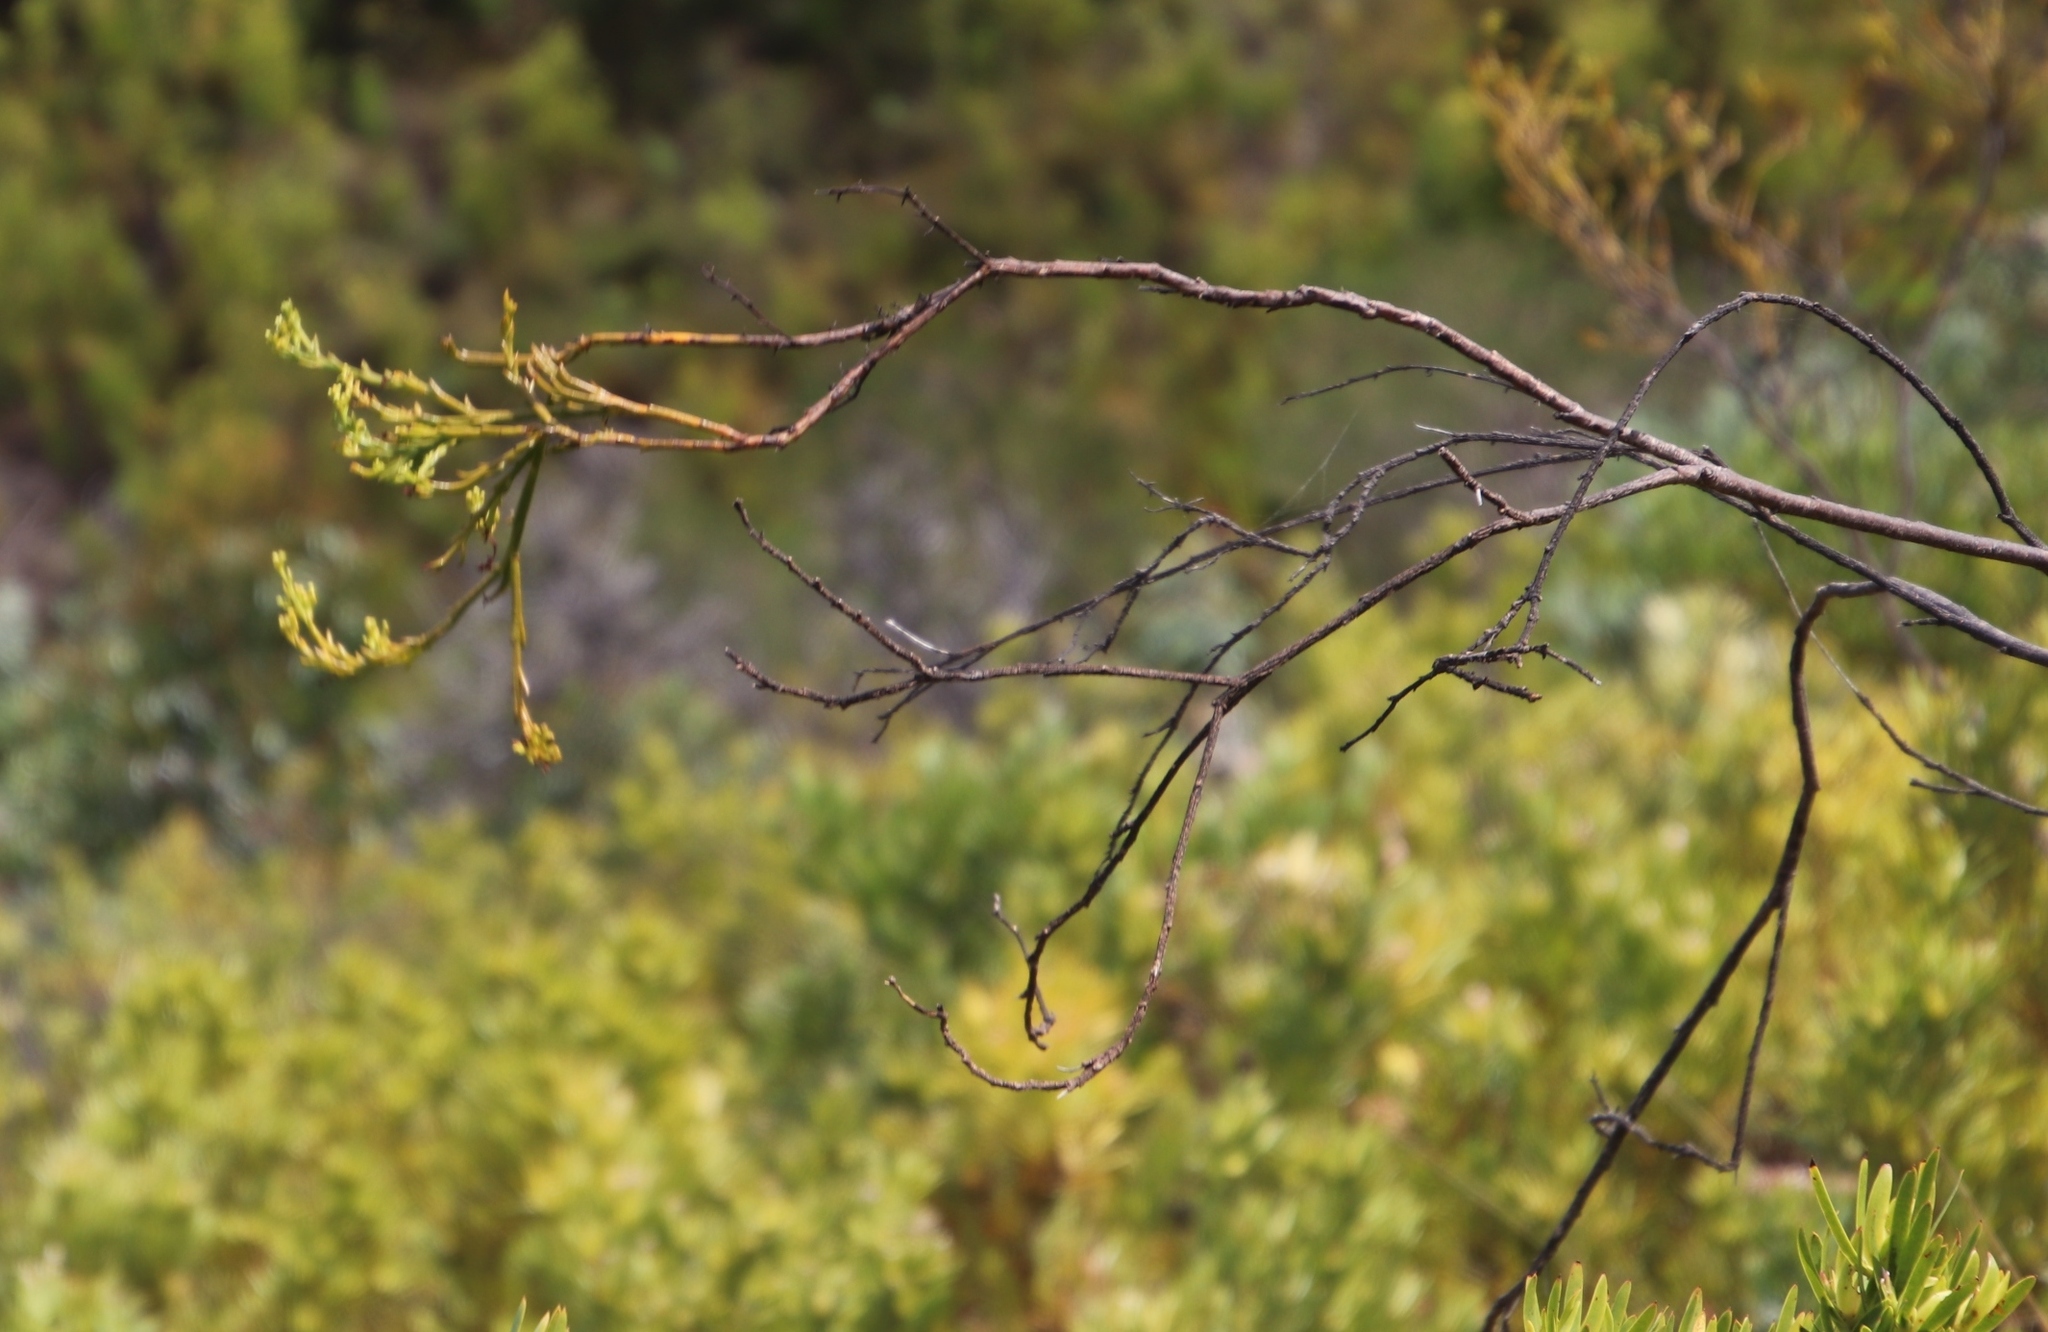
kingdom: Plantae
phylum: Tracheophyta
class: Magnoliopsida
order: Santalales
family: Thesiaceae
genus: Thesium
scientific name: Thesium strictum
